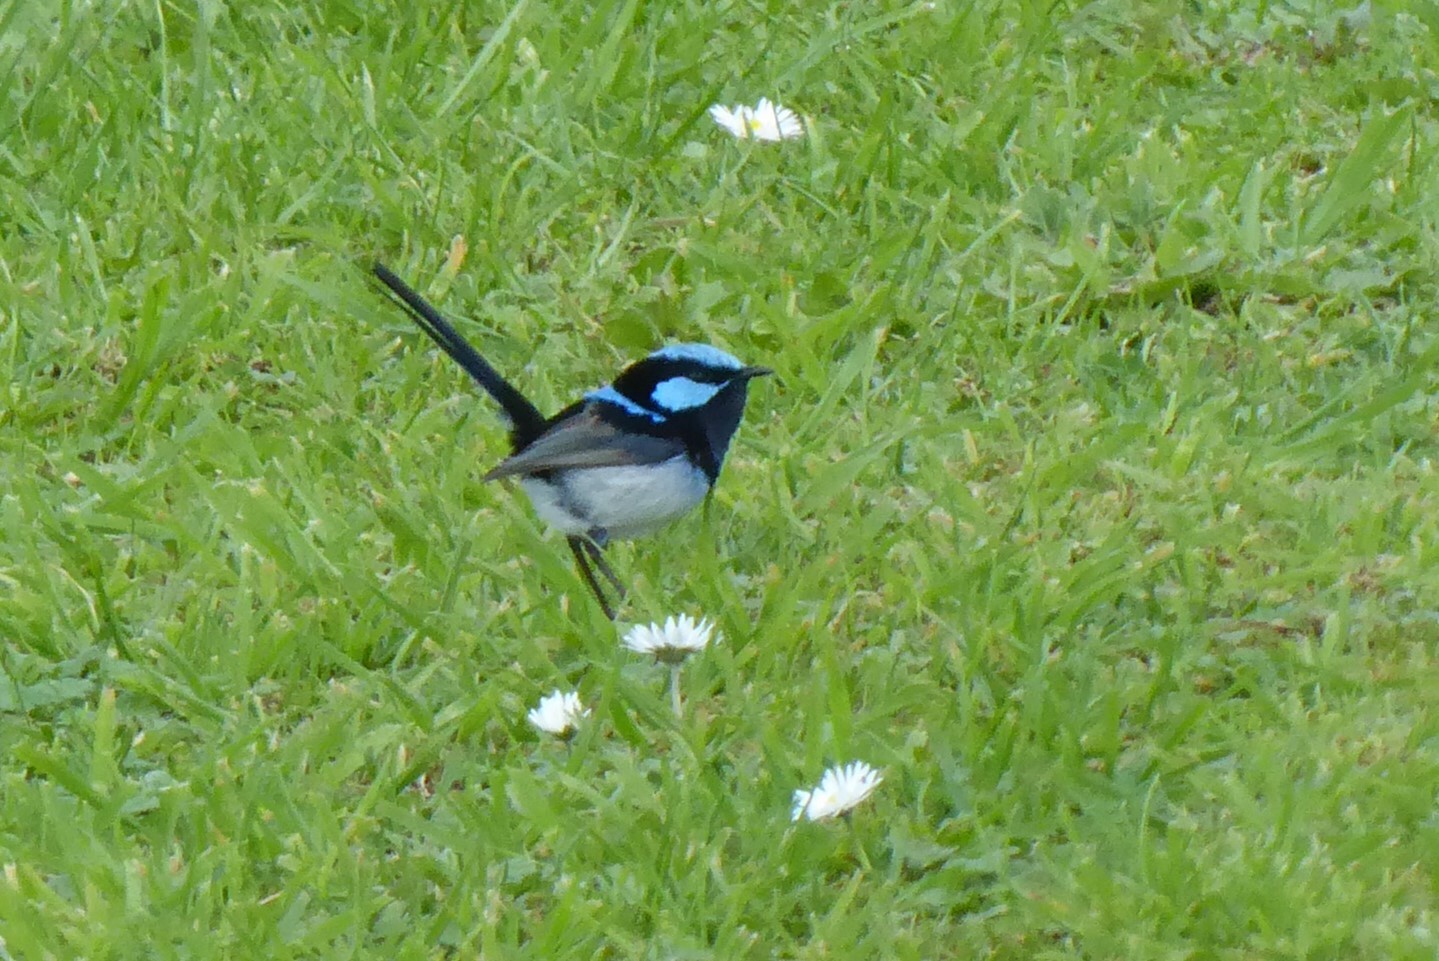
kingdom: Animalia
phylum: Chordata
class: Aves
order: Passeriformes
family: Maluridae
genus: Malurus
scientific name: Malurus cyaneus
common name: Superb fairywren
